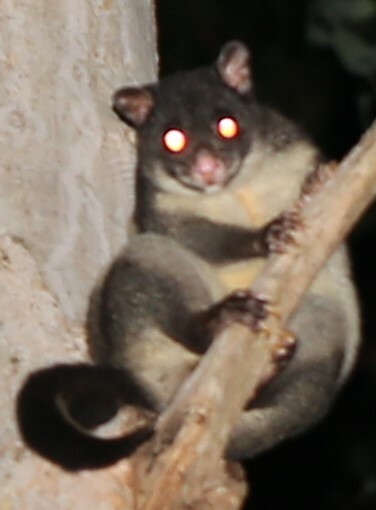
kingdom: Animalia
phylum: Chordata
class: Mammalia
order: Diprotodontia
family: Phalangeridae
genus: Trichosurus
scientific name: Trichosurus caninus
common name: Short-eared possum
